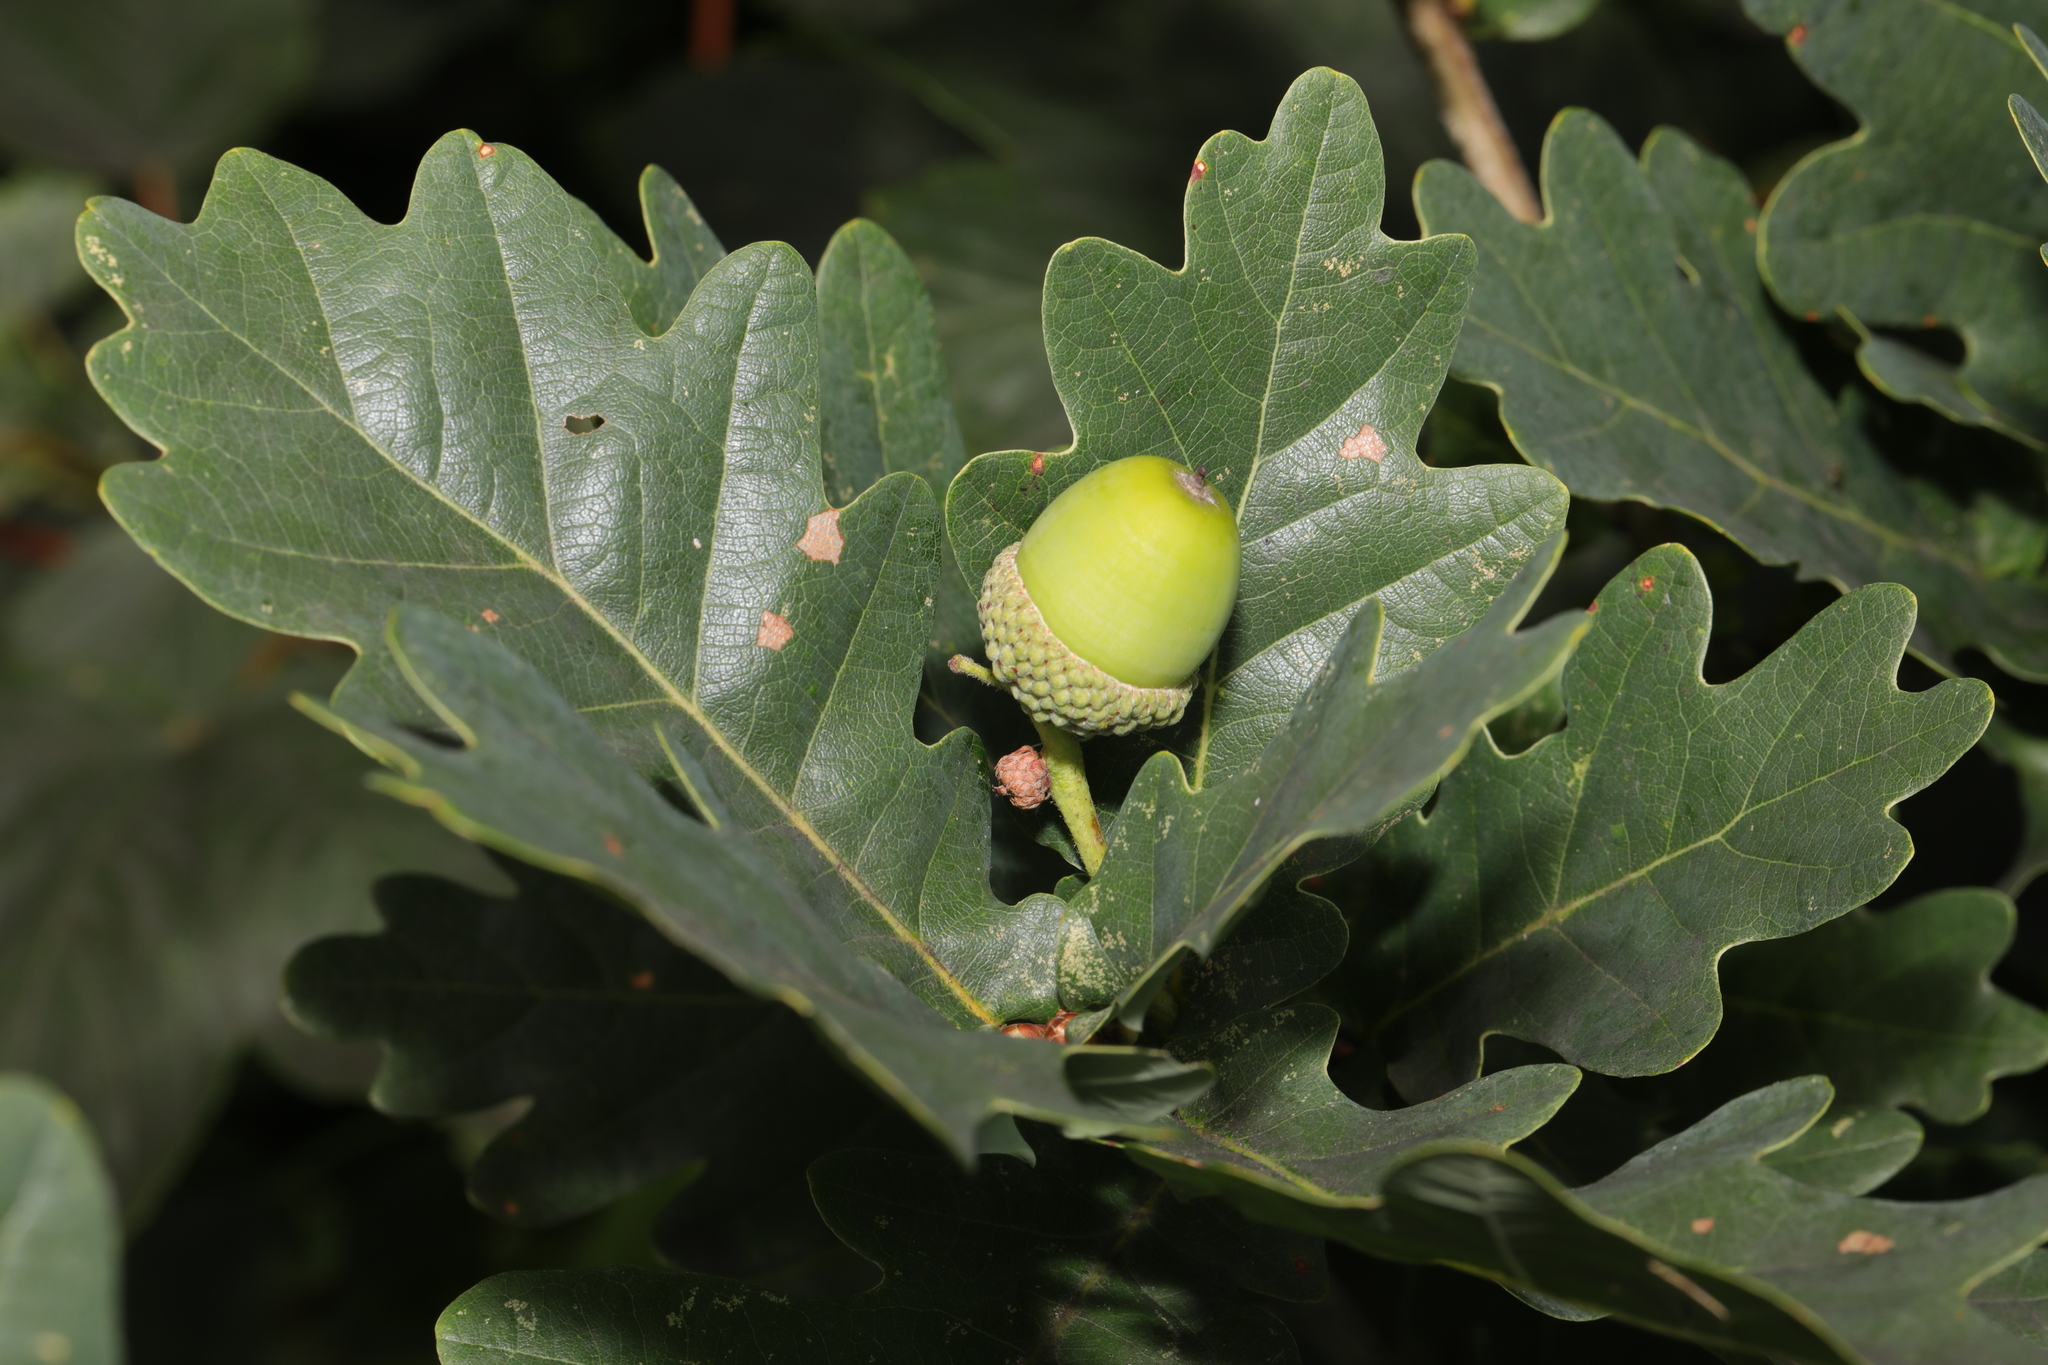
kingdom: Plantae
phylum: Tracheophyta
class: Magnoliopsida
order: Fagales
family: Fagaceae
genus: Quercus
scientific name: Quercus robur
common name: Pedunculate oak
